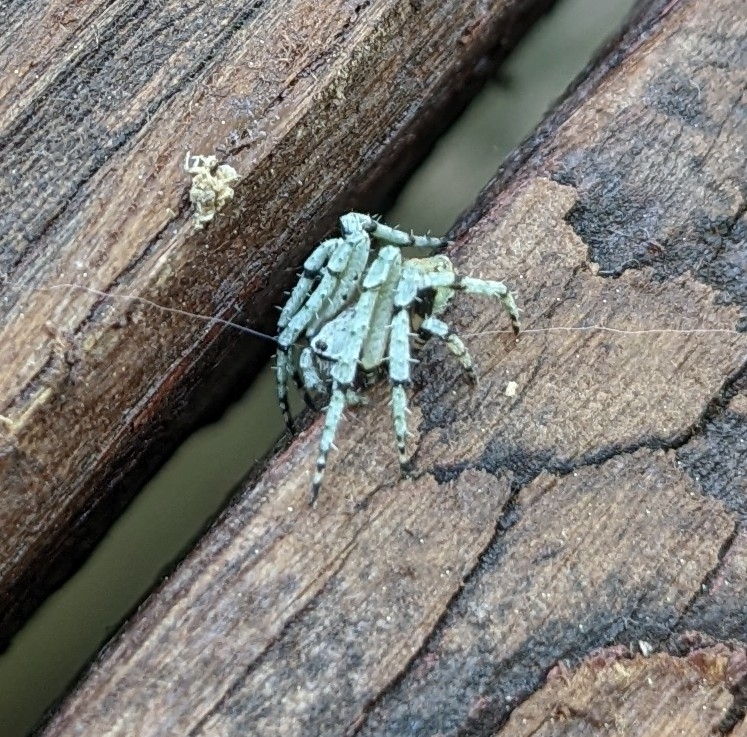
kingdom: Animalia
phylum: Arthropoda
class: Arachnida
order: Araneae
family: Araneidae
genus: Eustala
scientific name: Eustala anastera
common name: Orb weavers
